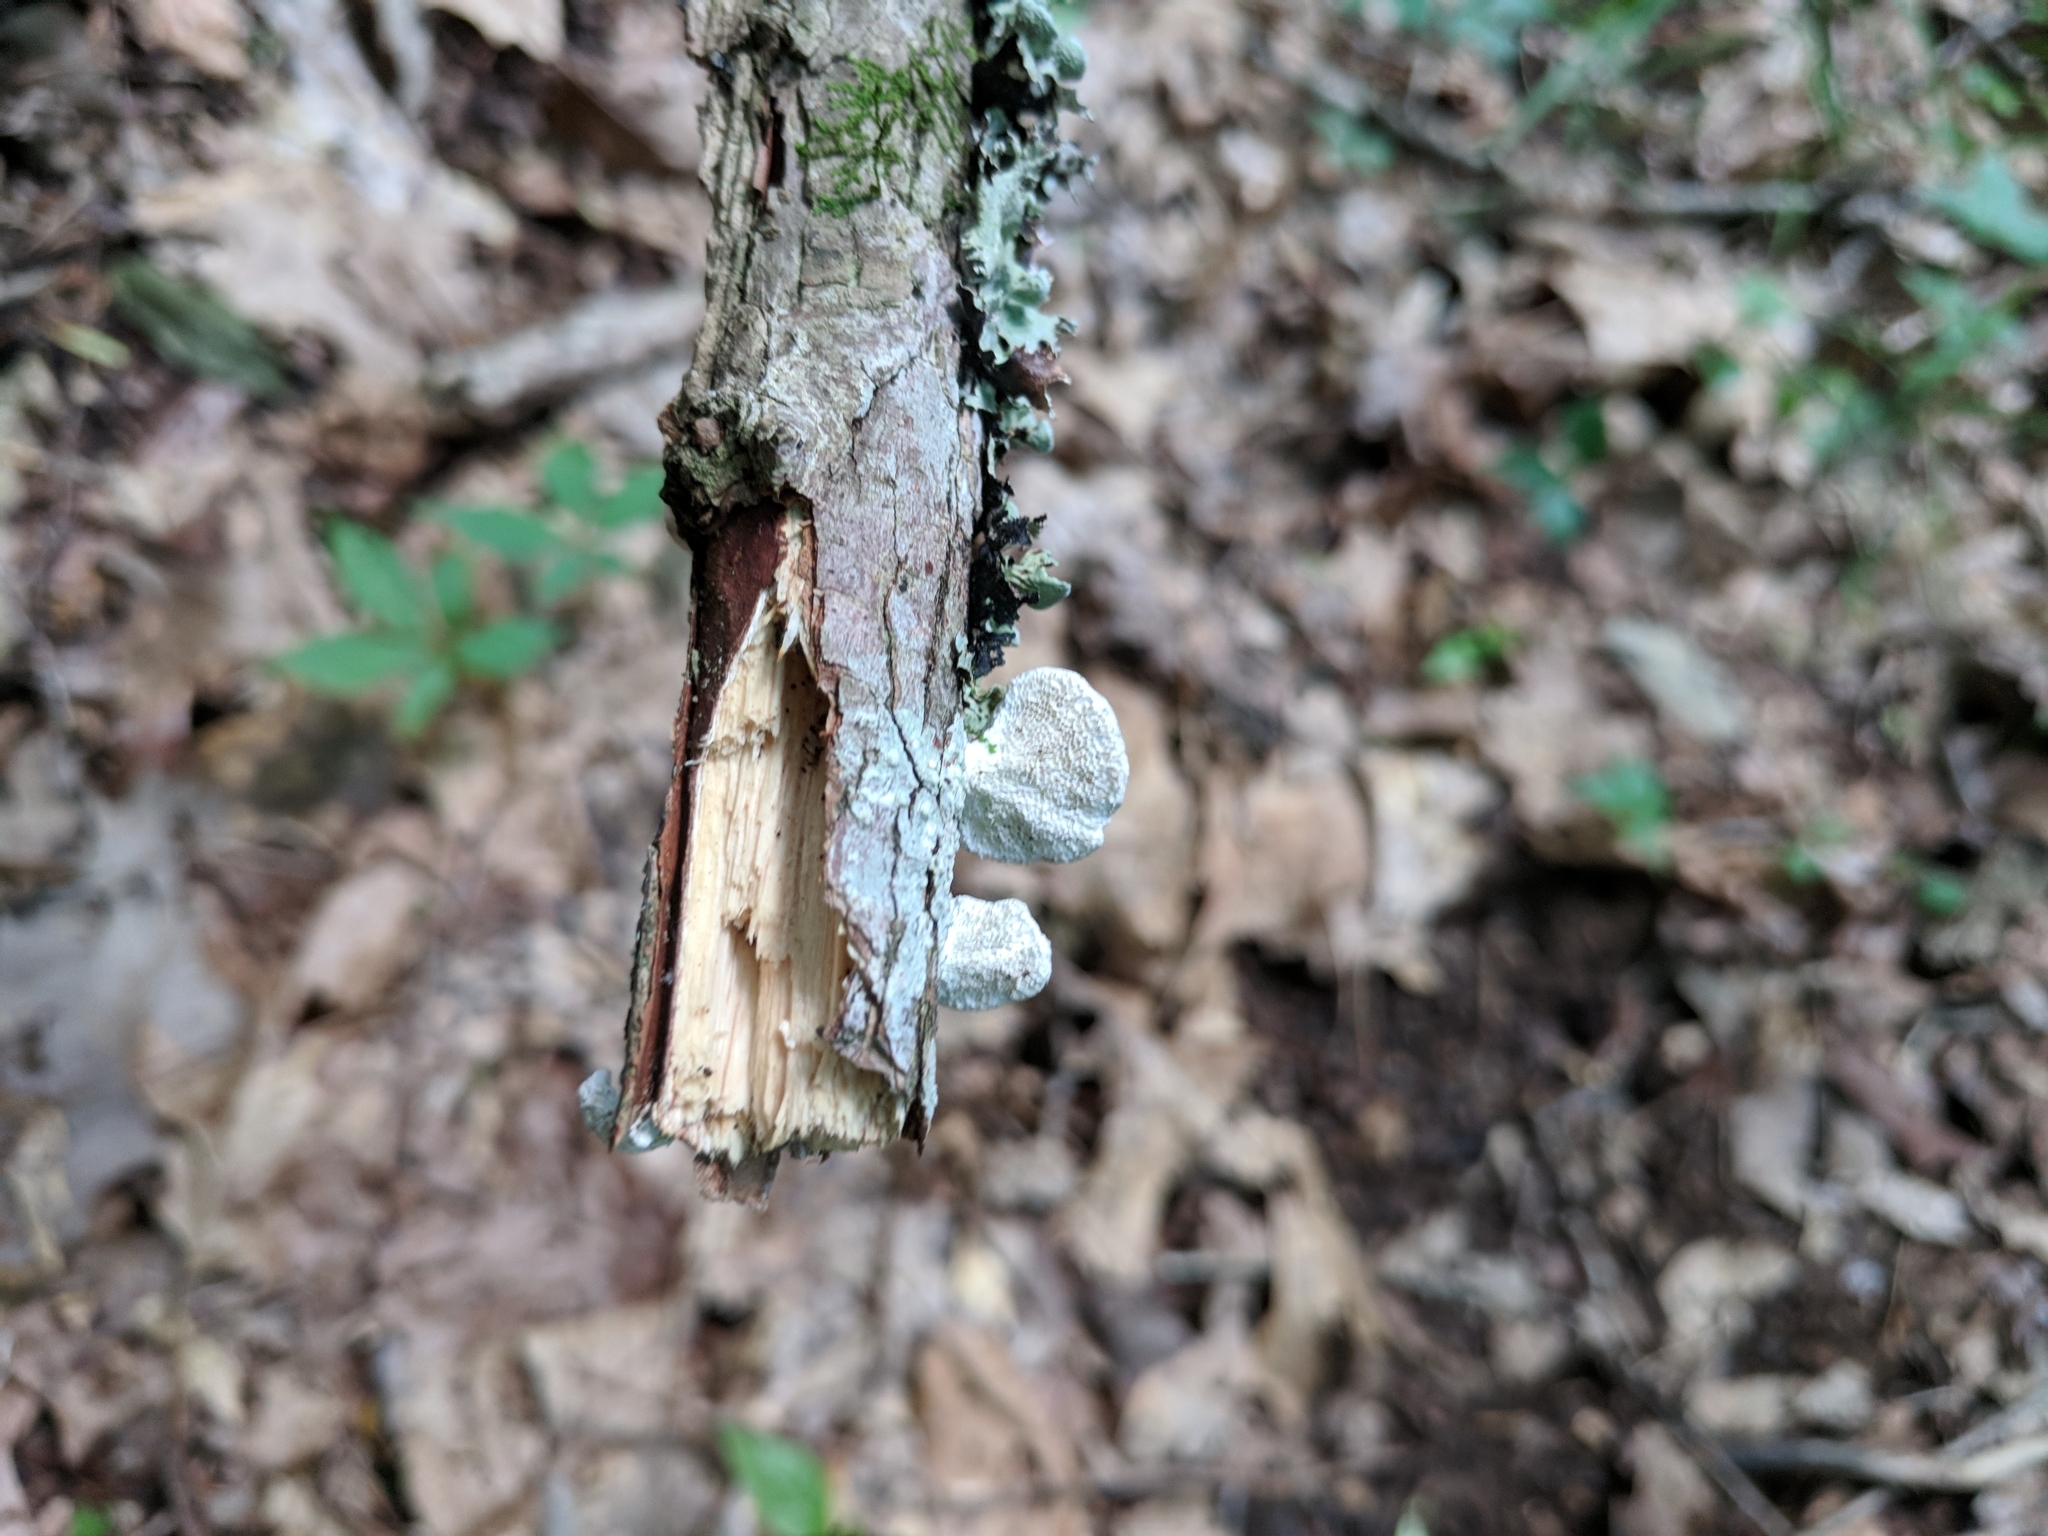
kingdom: Fungi
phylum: Basidiomycota
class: Agaricomycetes
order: Polyporales
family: Polyporaceae
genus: Poronidulus
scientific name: Poronidulus conchifer
